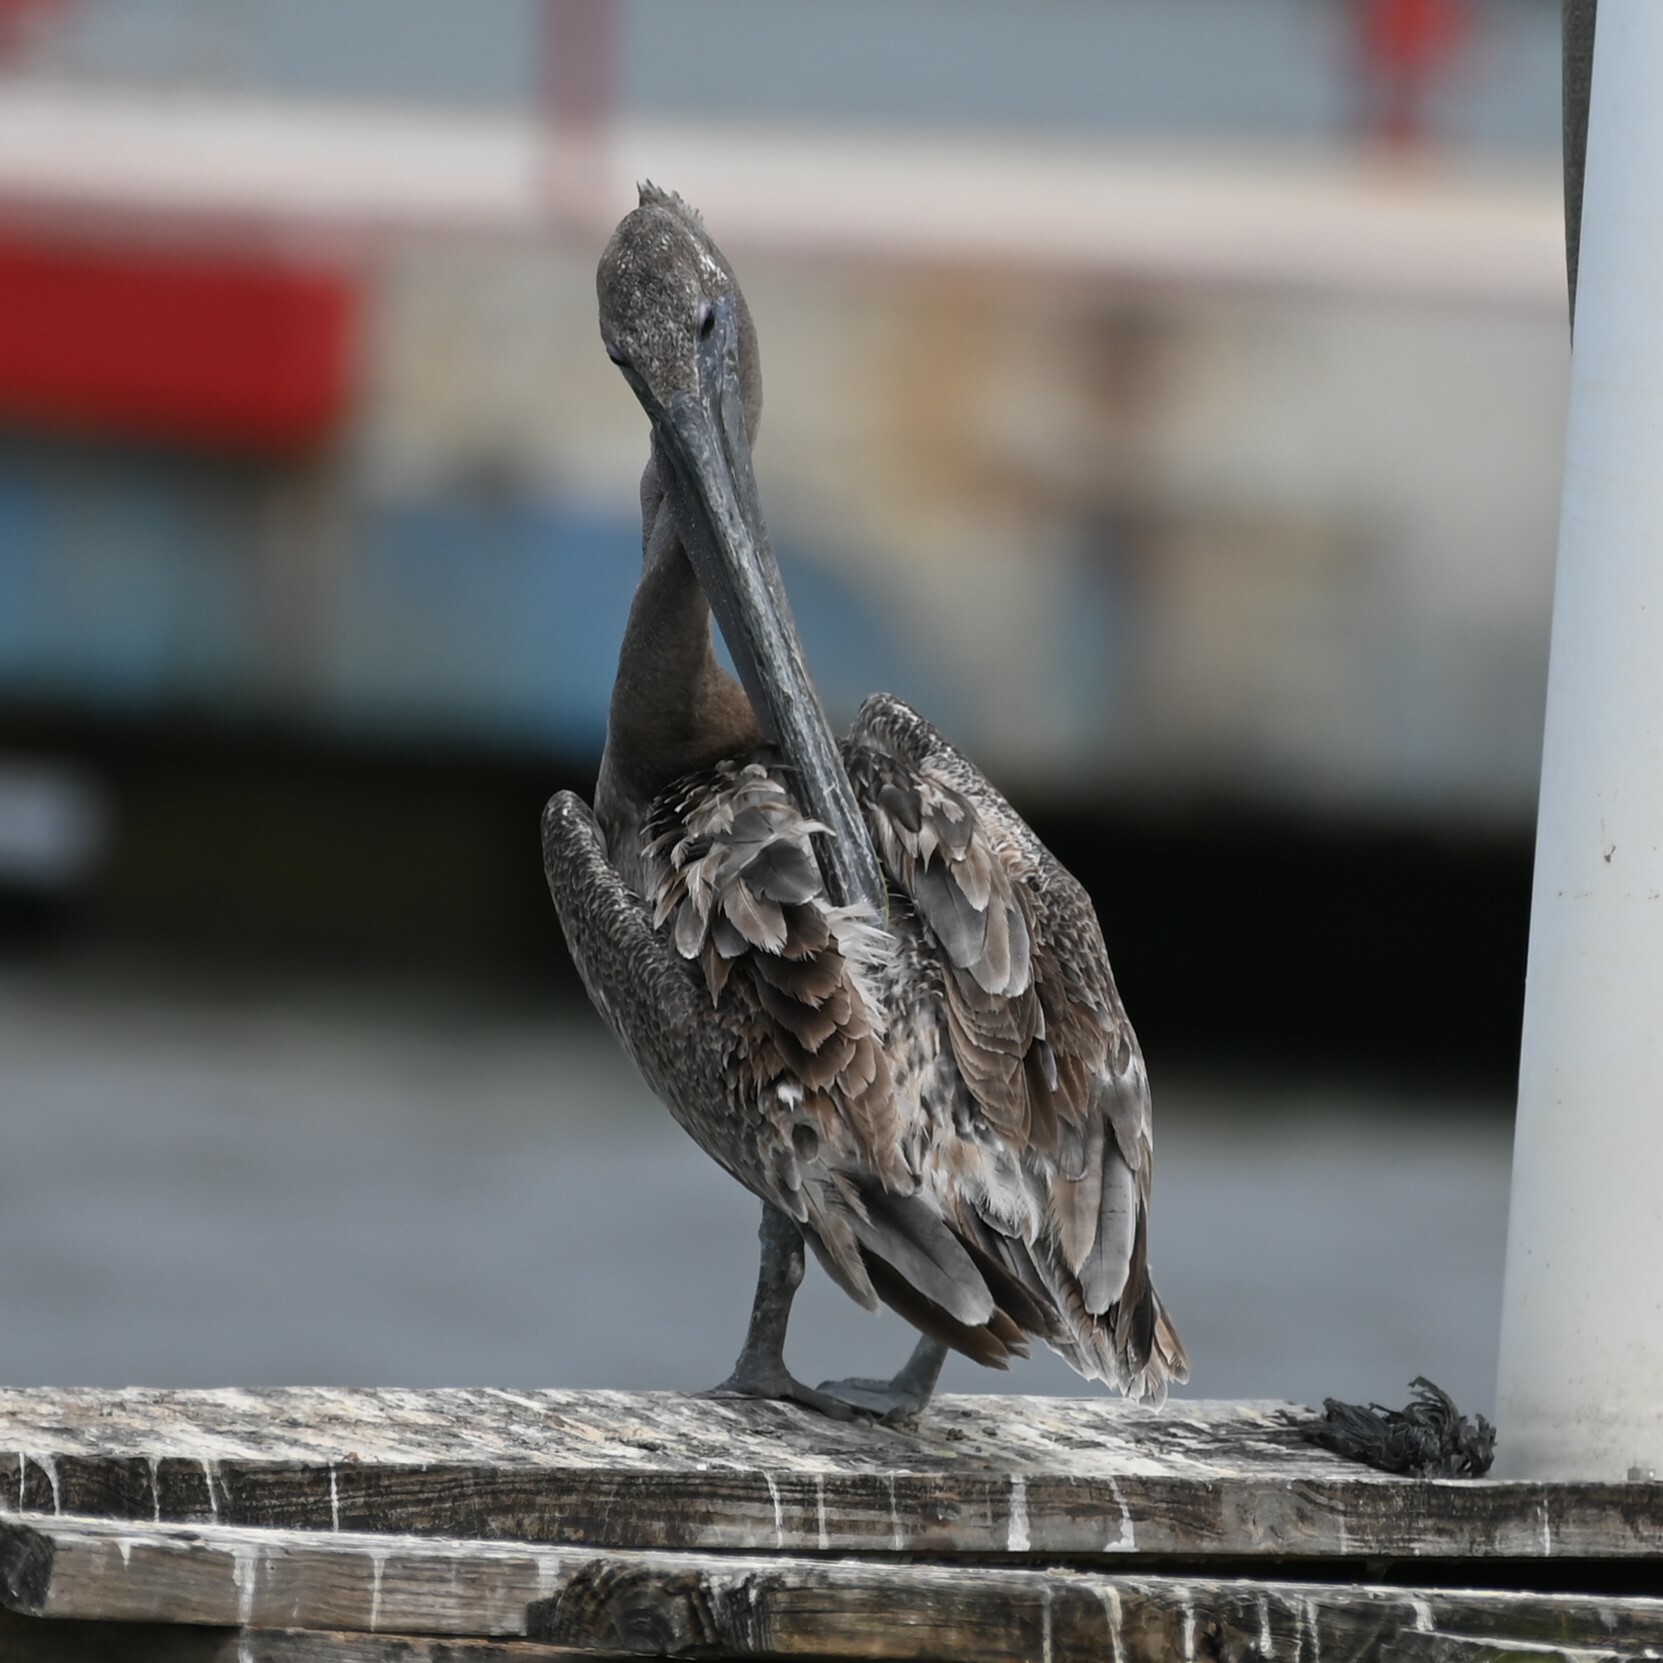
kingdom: Animalia
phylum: Chordata
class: Aves
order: Pelecaniformes
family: Pelecanidae
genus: Pelecanus
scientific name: Pelecanus occidentalis
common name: Brown pelican
